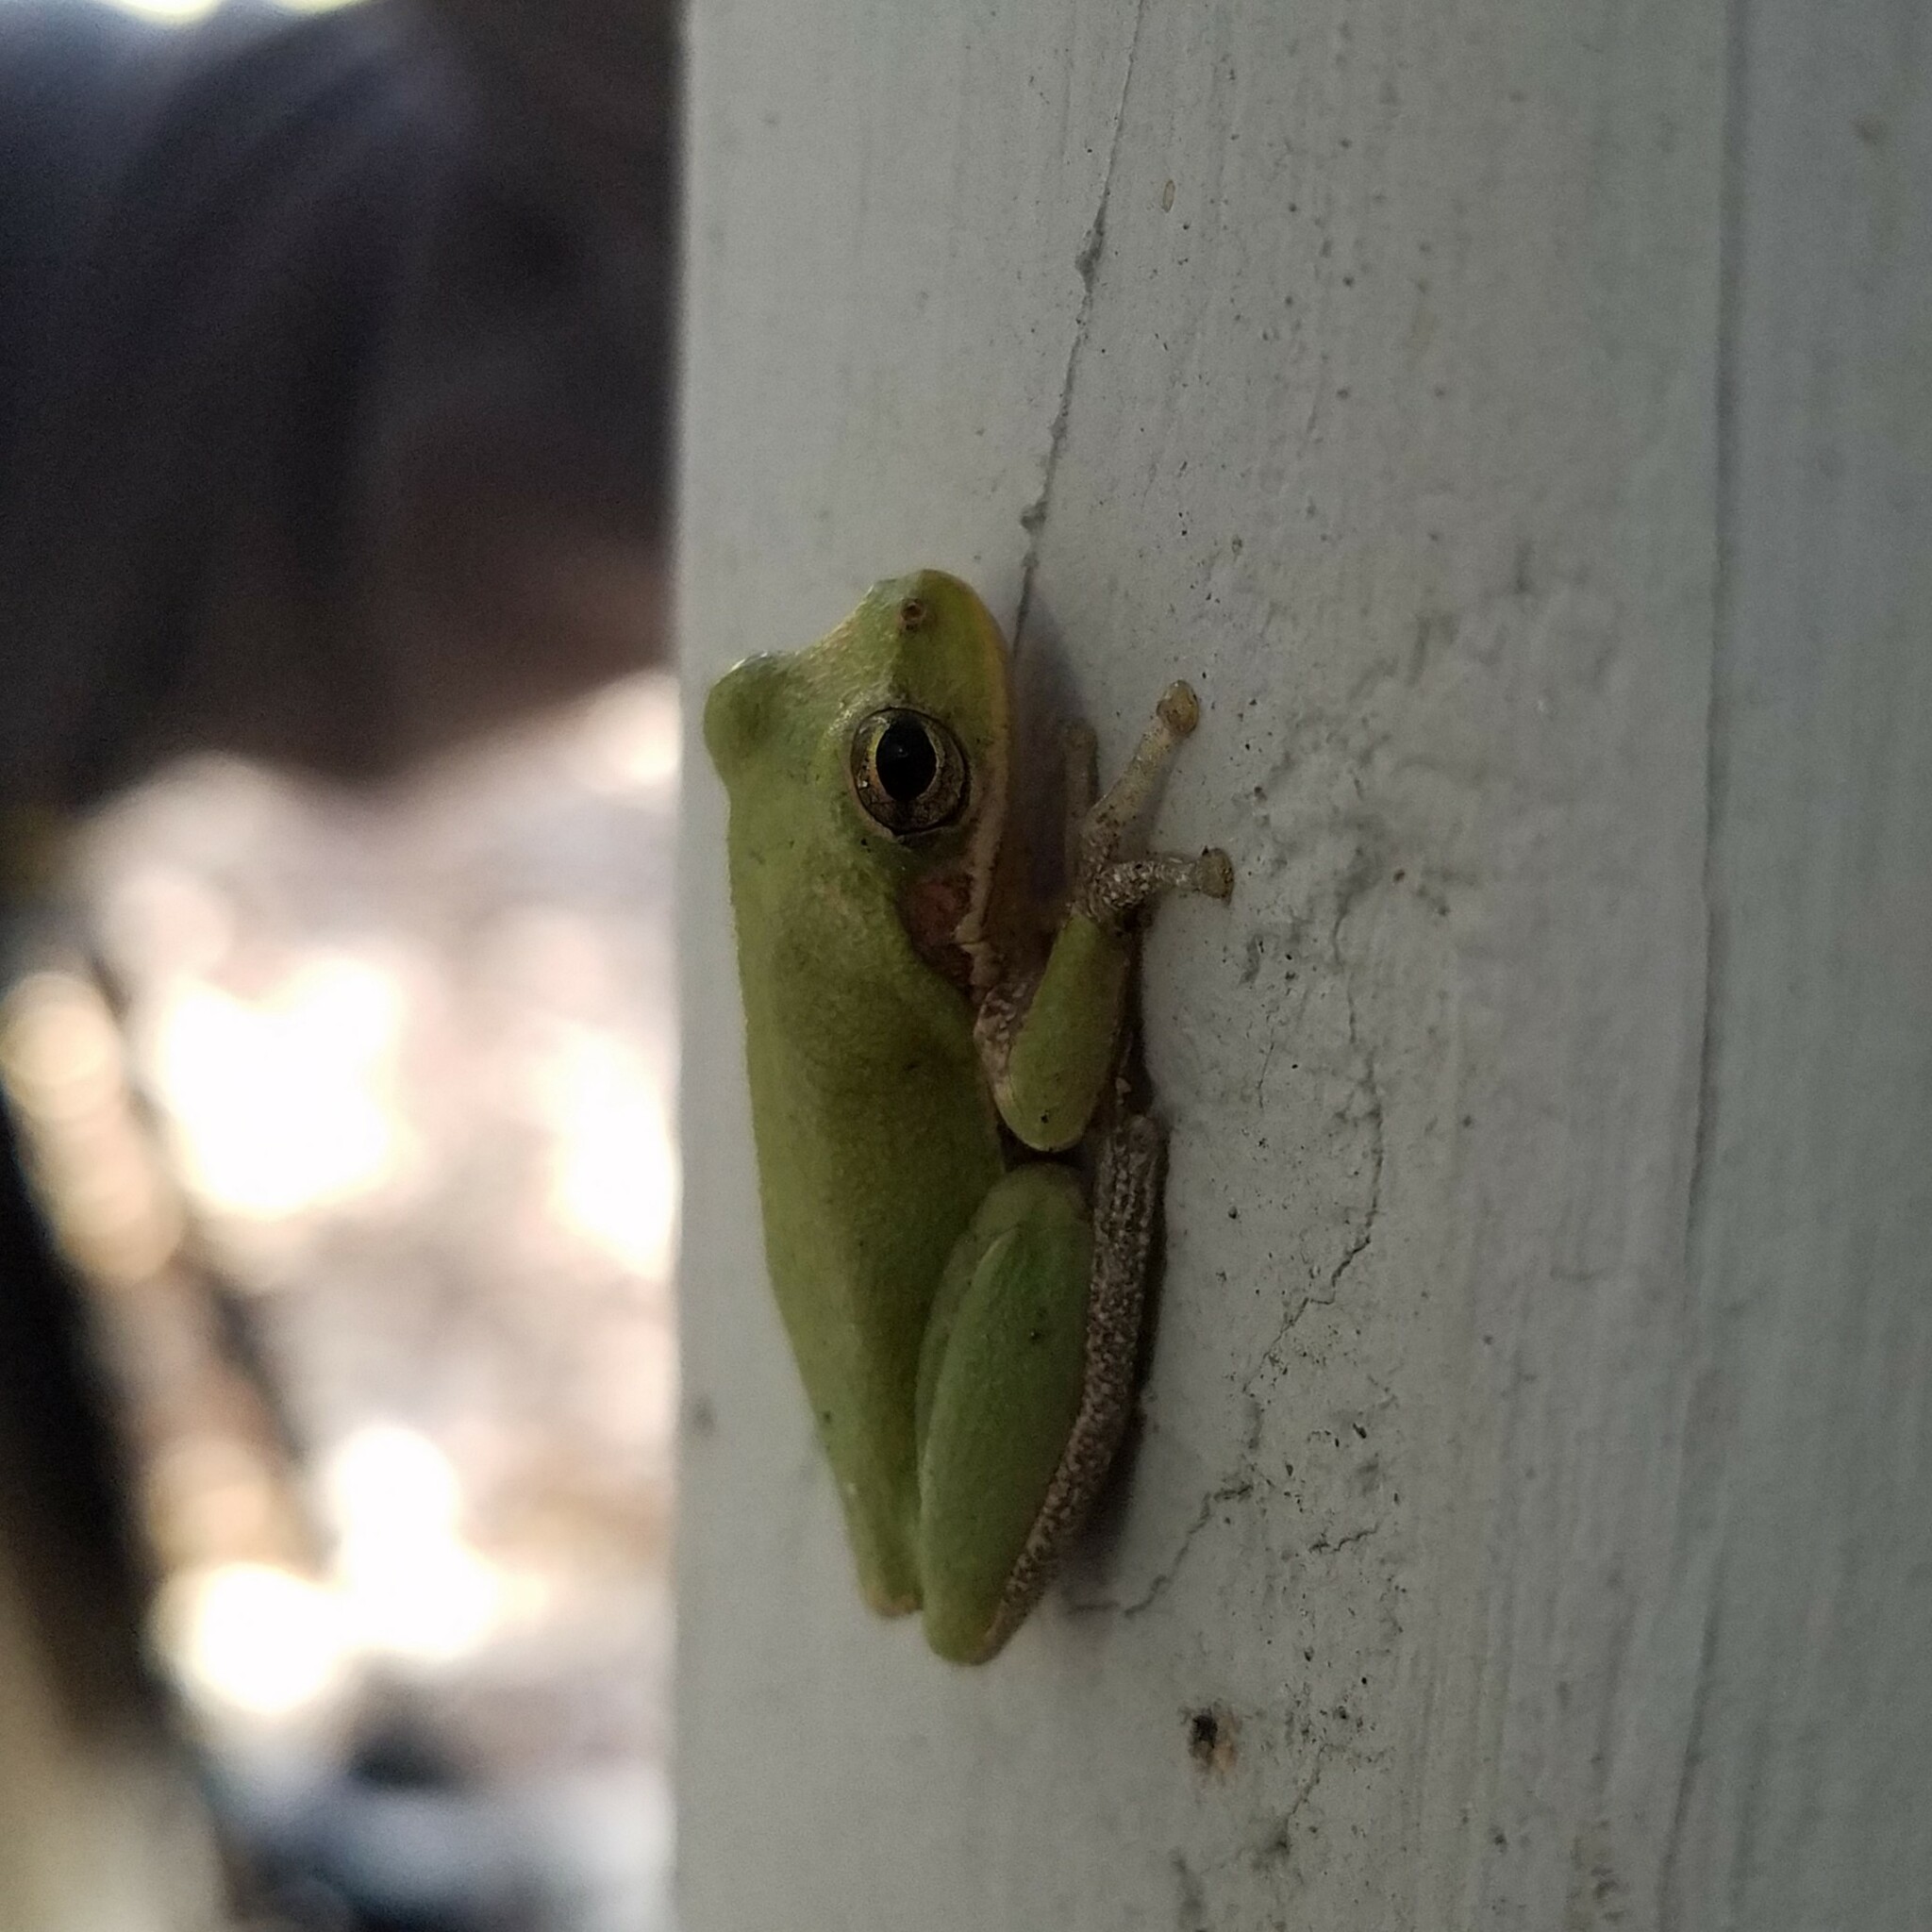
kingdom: Animalia
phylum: Chordata
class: Amphibia
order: Anura
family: Hylidae
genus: Dryophytes
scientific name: Dryophytes squirellus
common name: Squirrel treefrog
